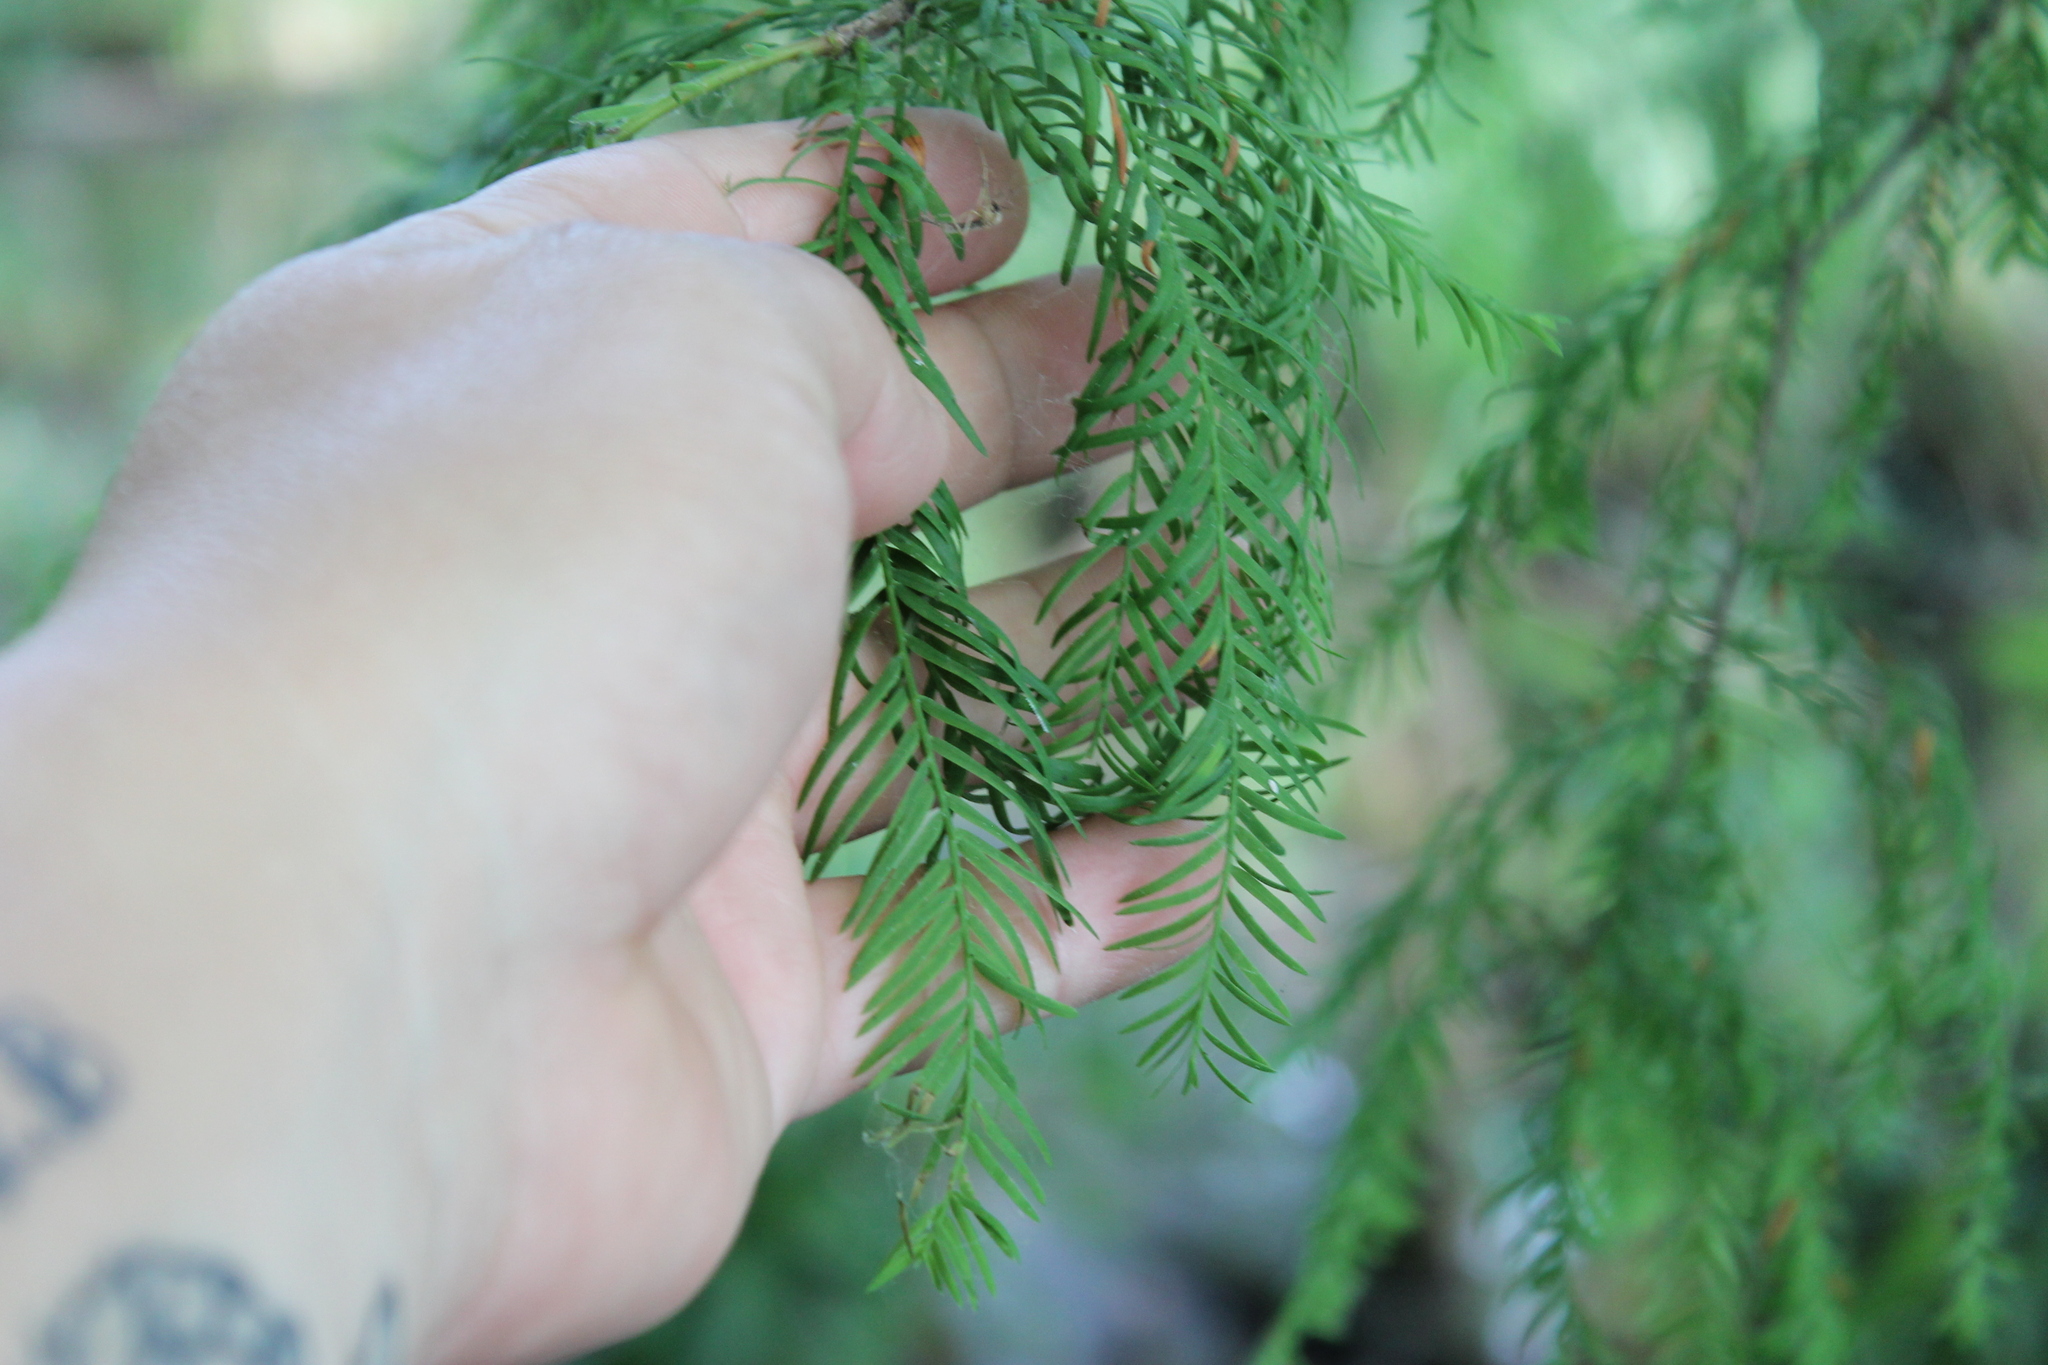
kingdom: Plantae
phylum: Tracheophyta
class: Pinopsida
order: Pinales
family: Cupressaceae
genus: Taxodium
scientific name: Taxodium distichum
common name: Bald cypress
